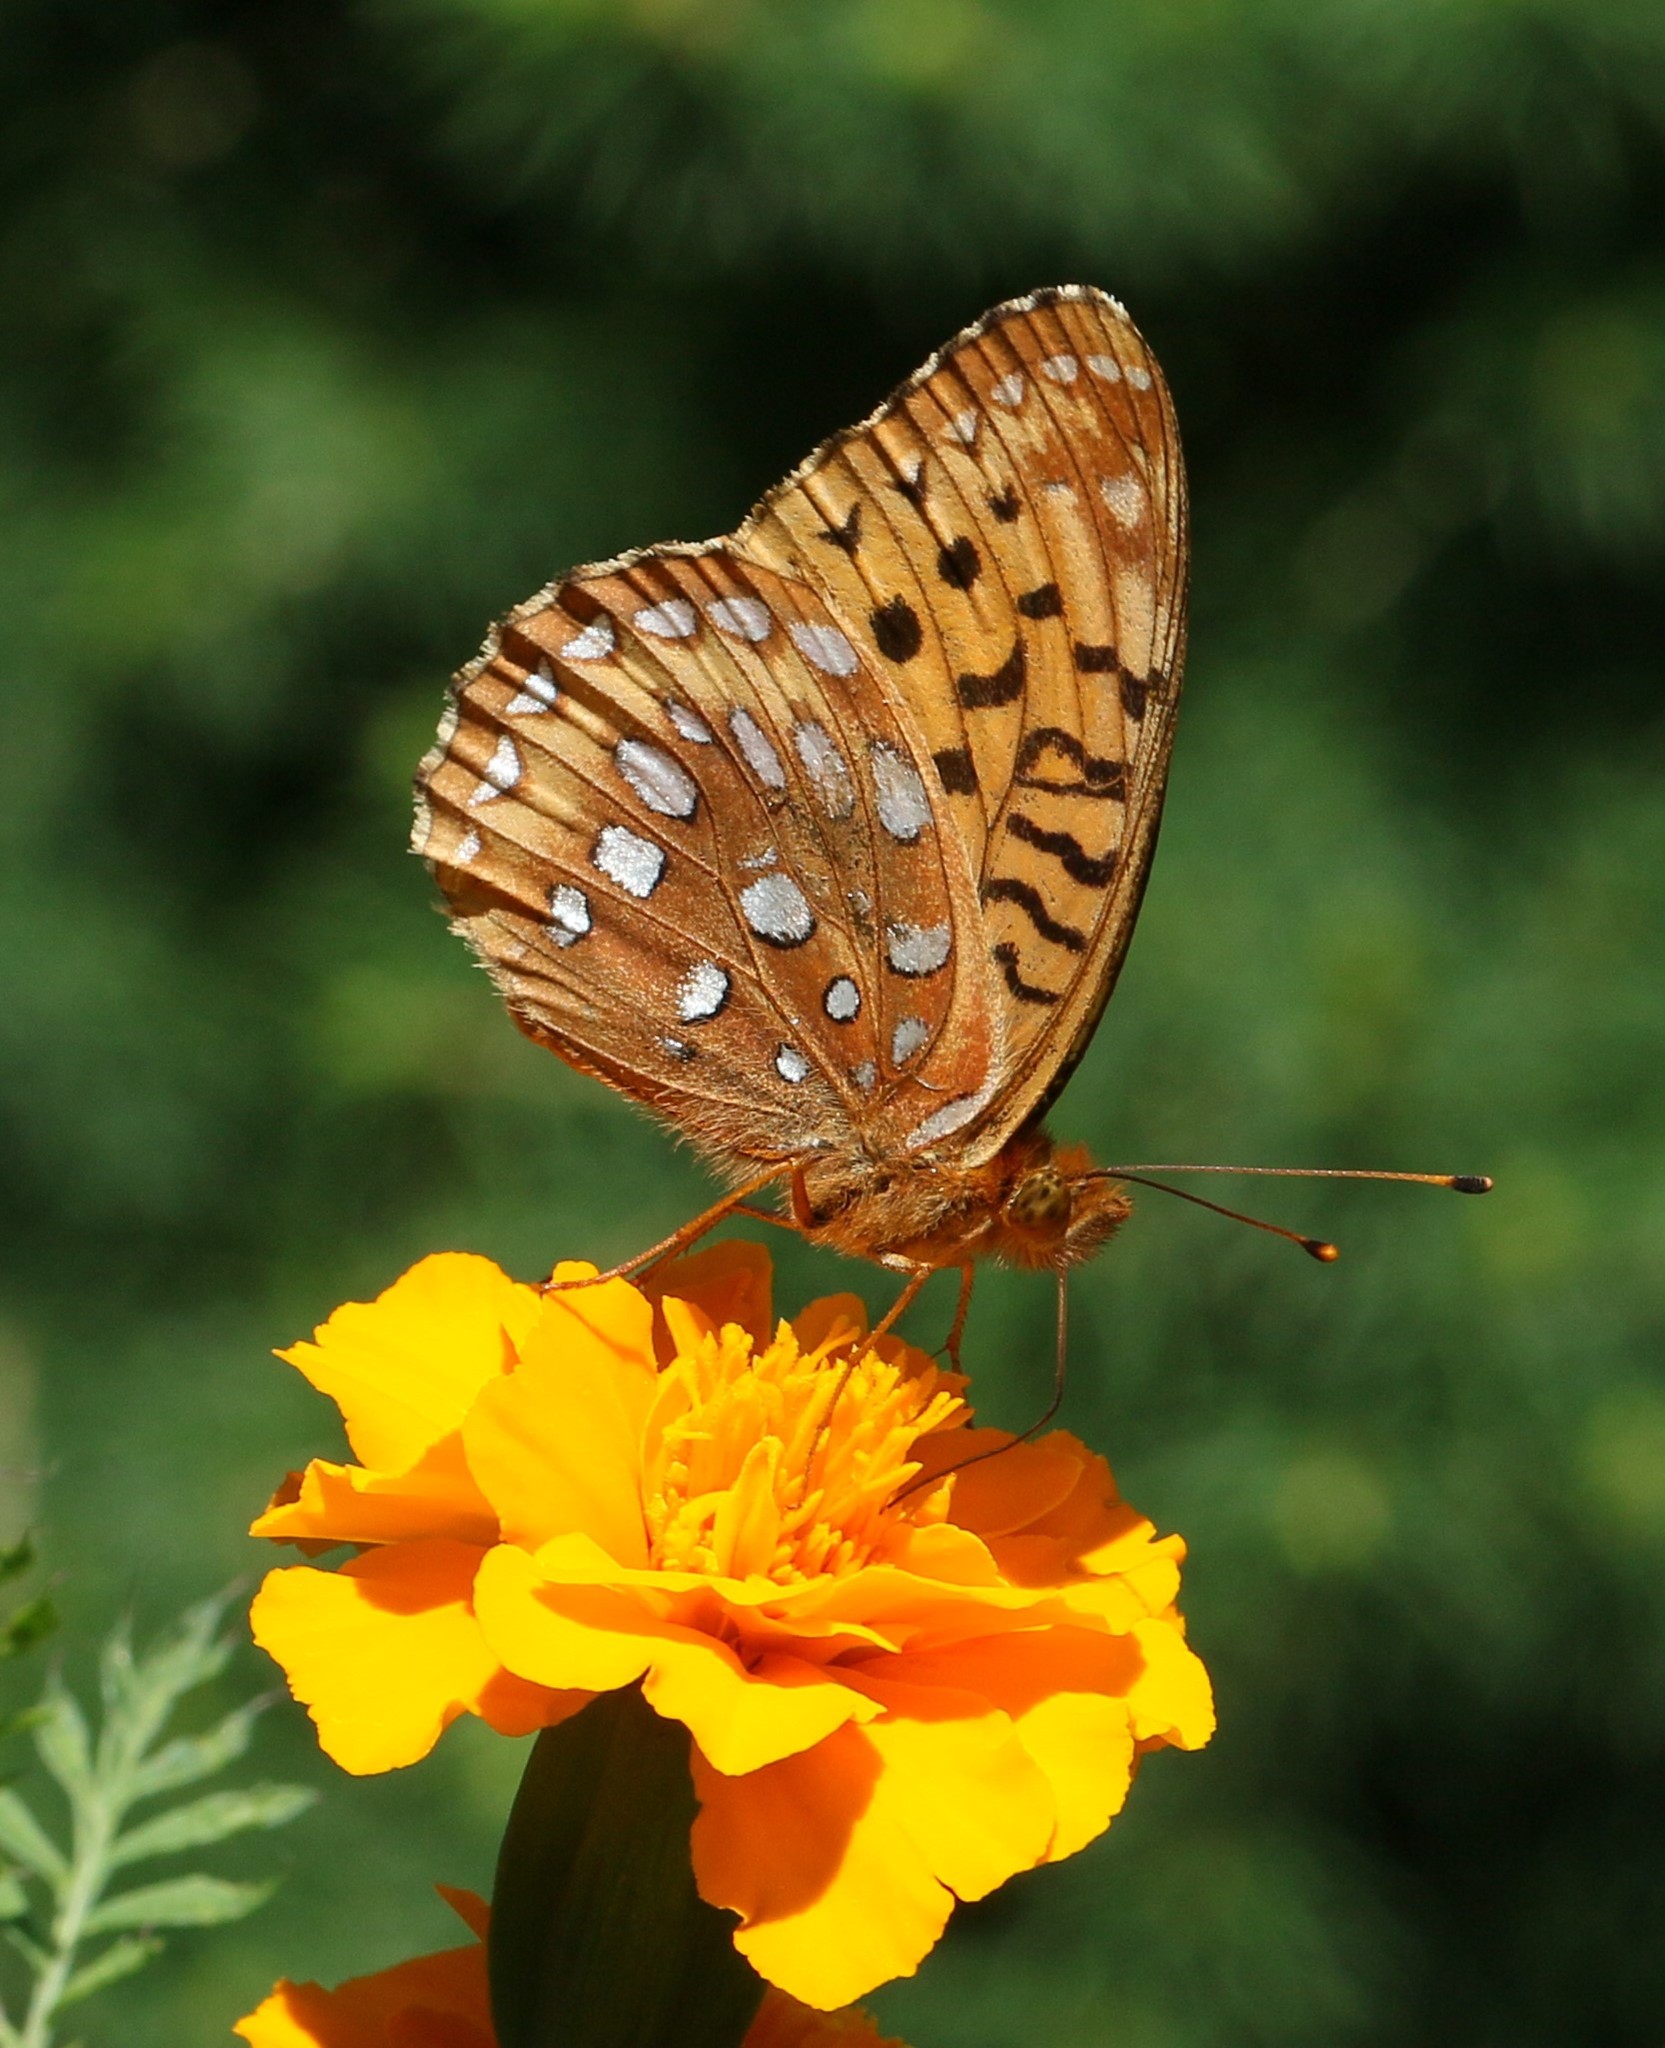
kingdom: Animalia
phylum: Arthropoda
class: Insecta
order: Lepidoptera
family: Nymphalidae
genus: Speyeria
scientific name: Speyeria cybele
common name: Great spangled fritillary
